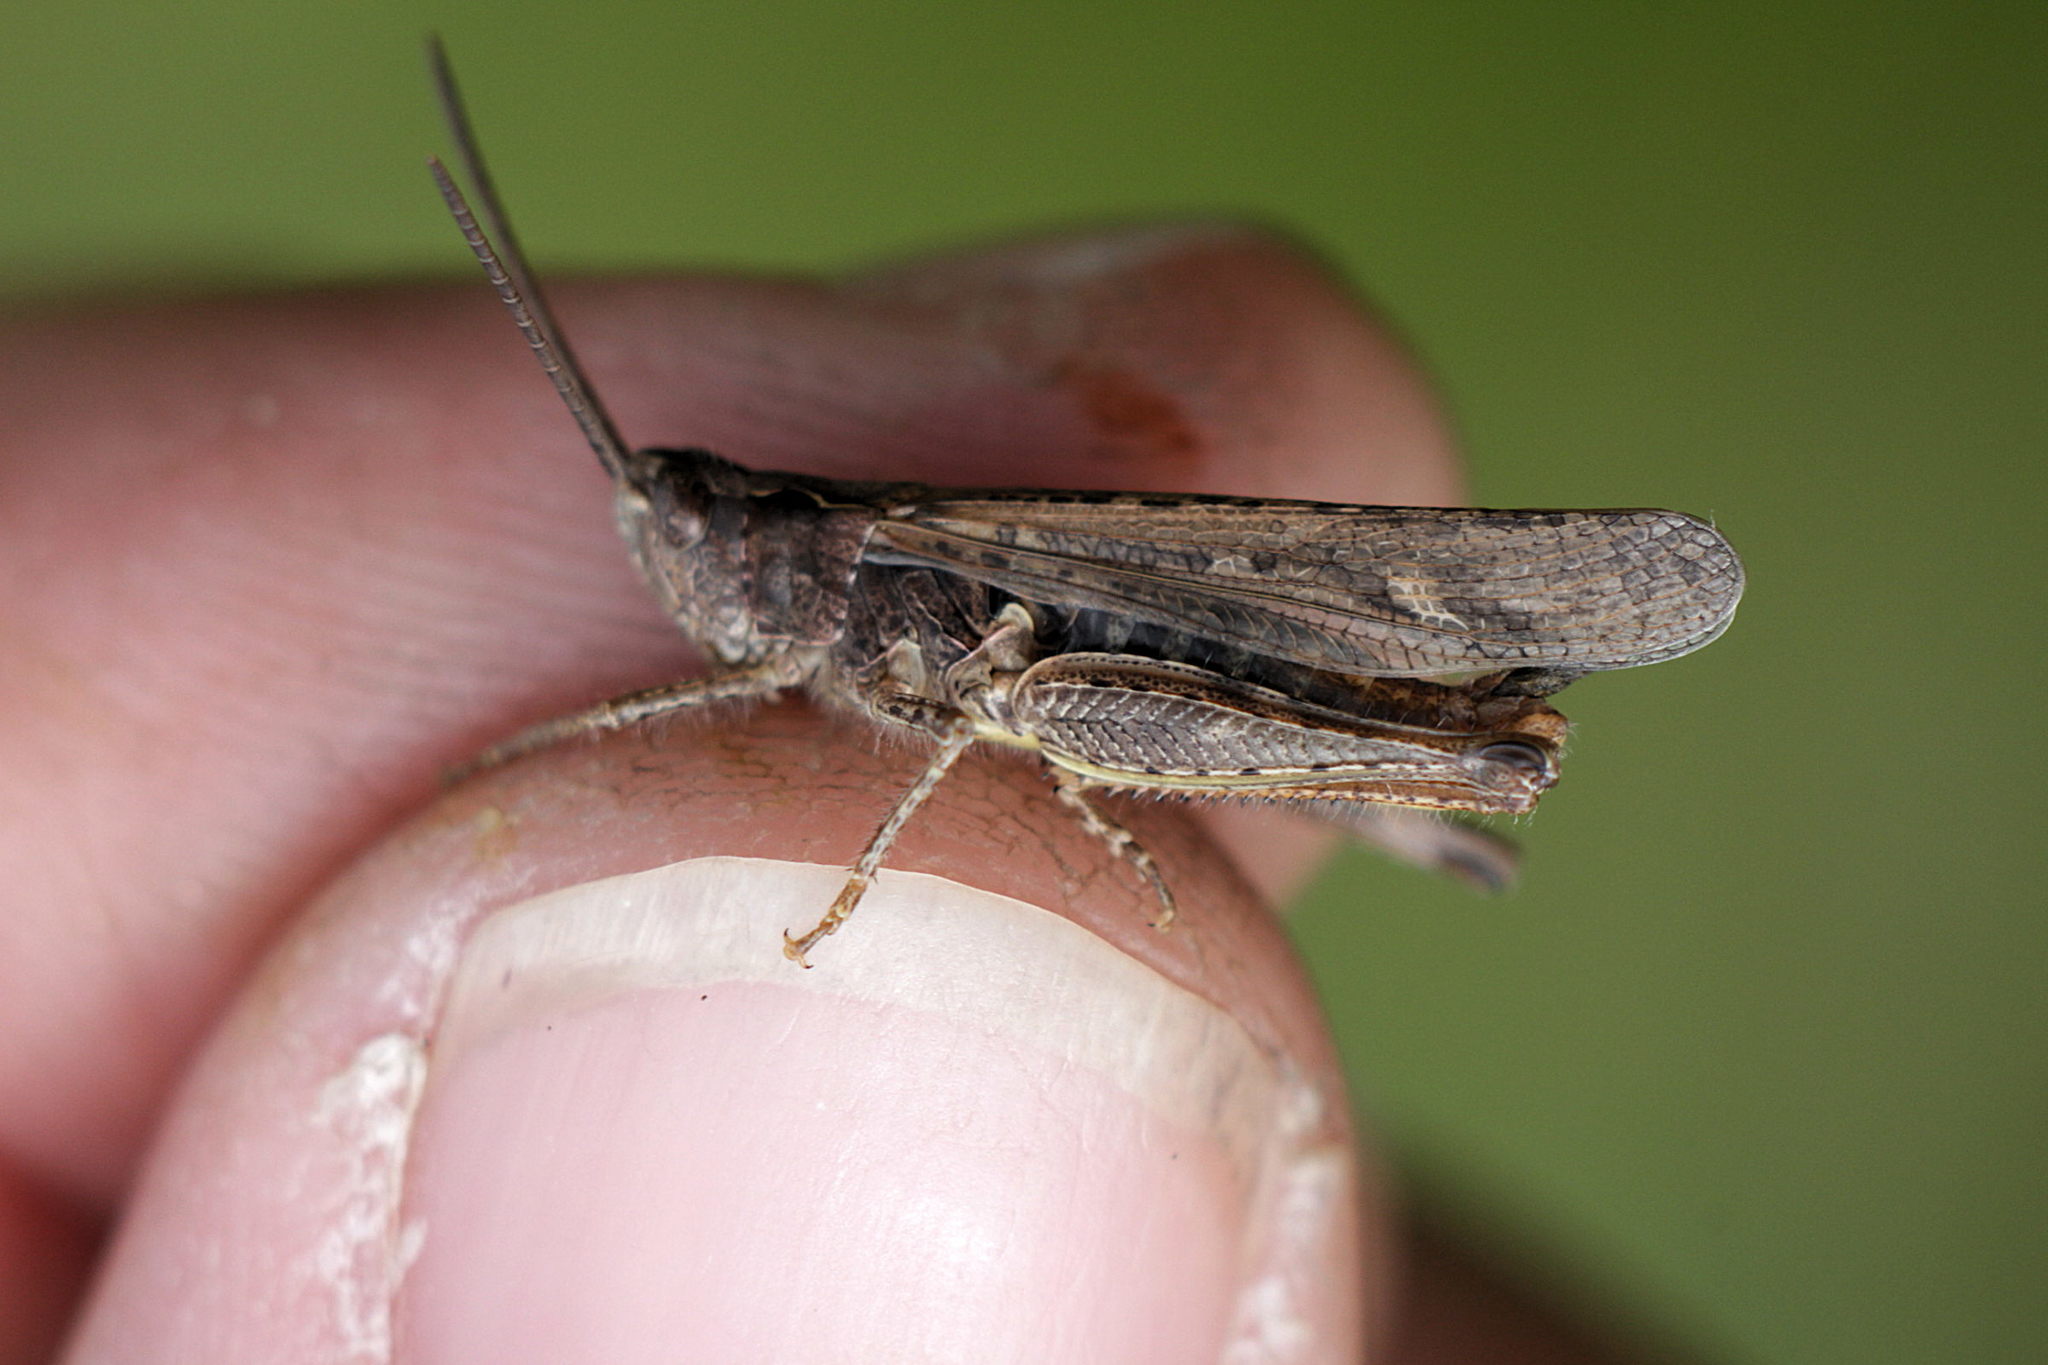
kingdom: Animalia
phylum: Arthropoda
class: Insecta
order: Orthoptera
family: Acrididae
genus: Chorthippus
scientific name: Chorthippus brunneus
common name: Field grasshopper
